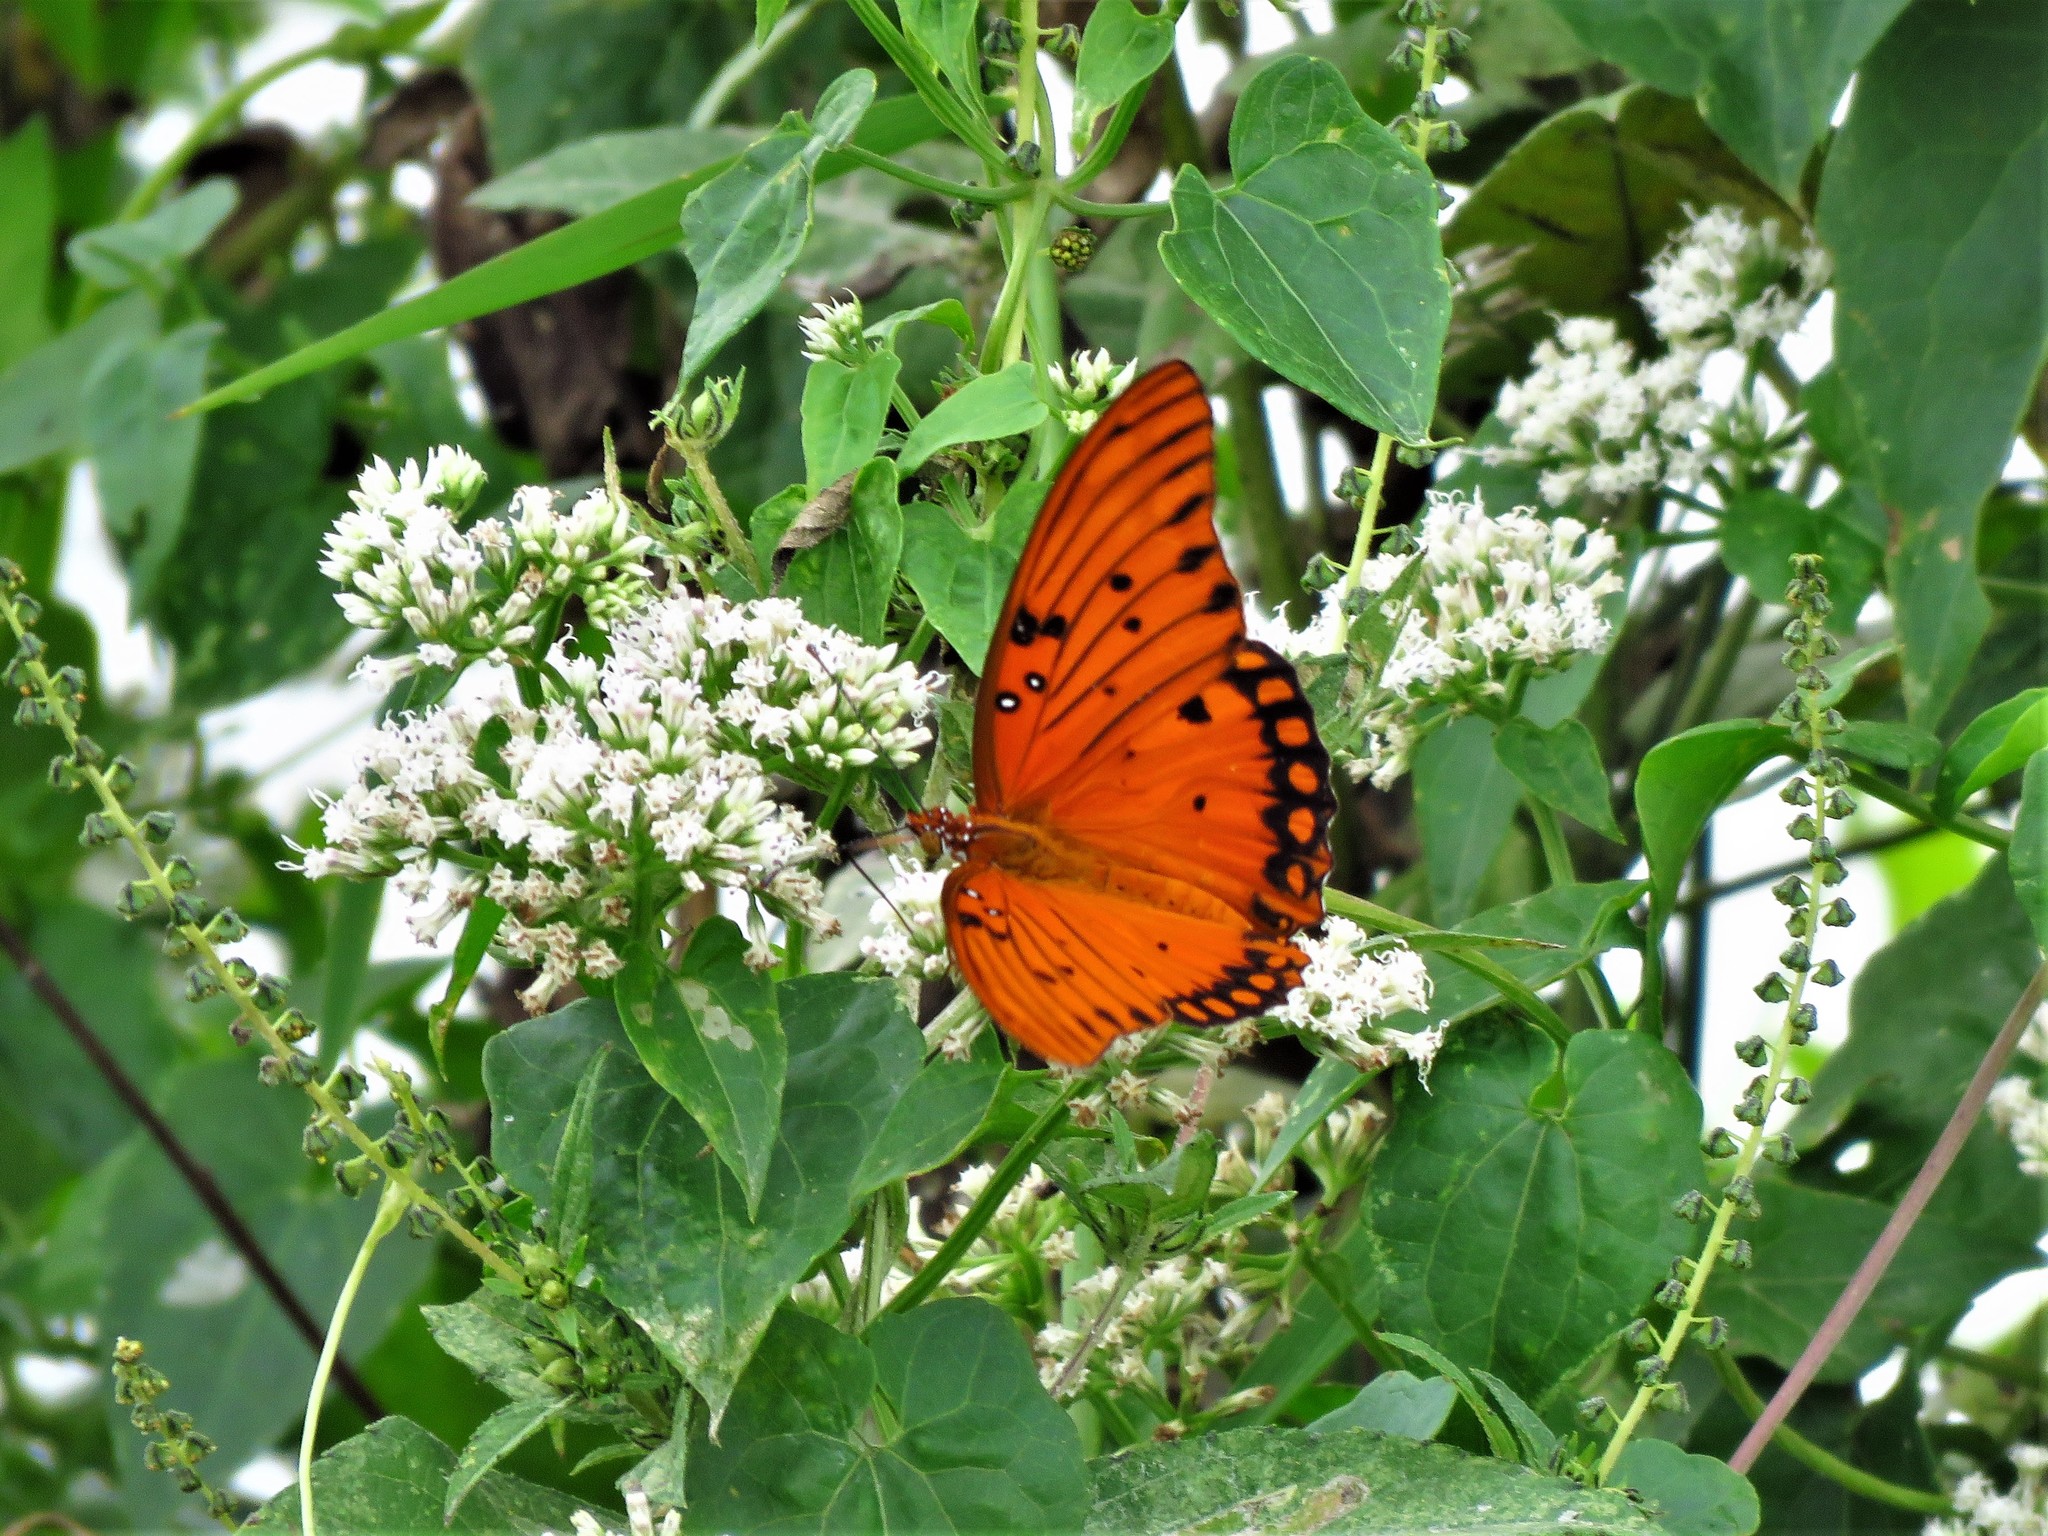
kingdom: Animalia
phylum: Arthropoda
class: Insecta
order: Lepidoptera
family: Nymphalidae
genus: Dione
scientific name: Dione vanillae
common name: Gulf fritillary
